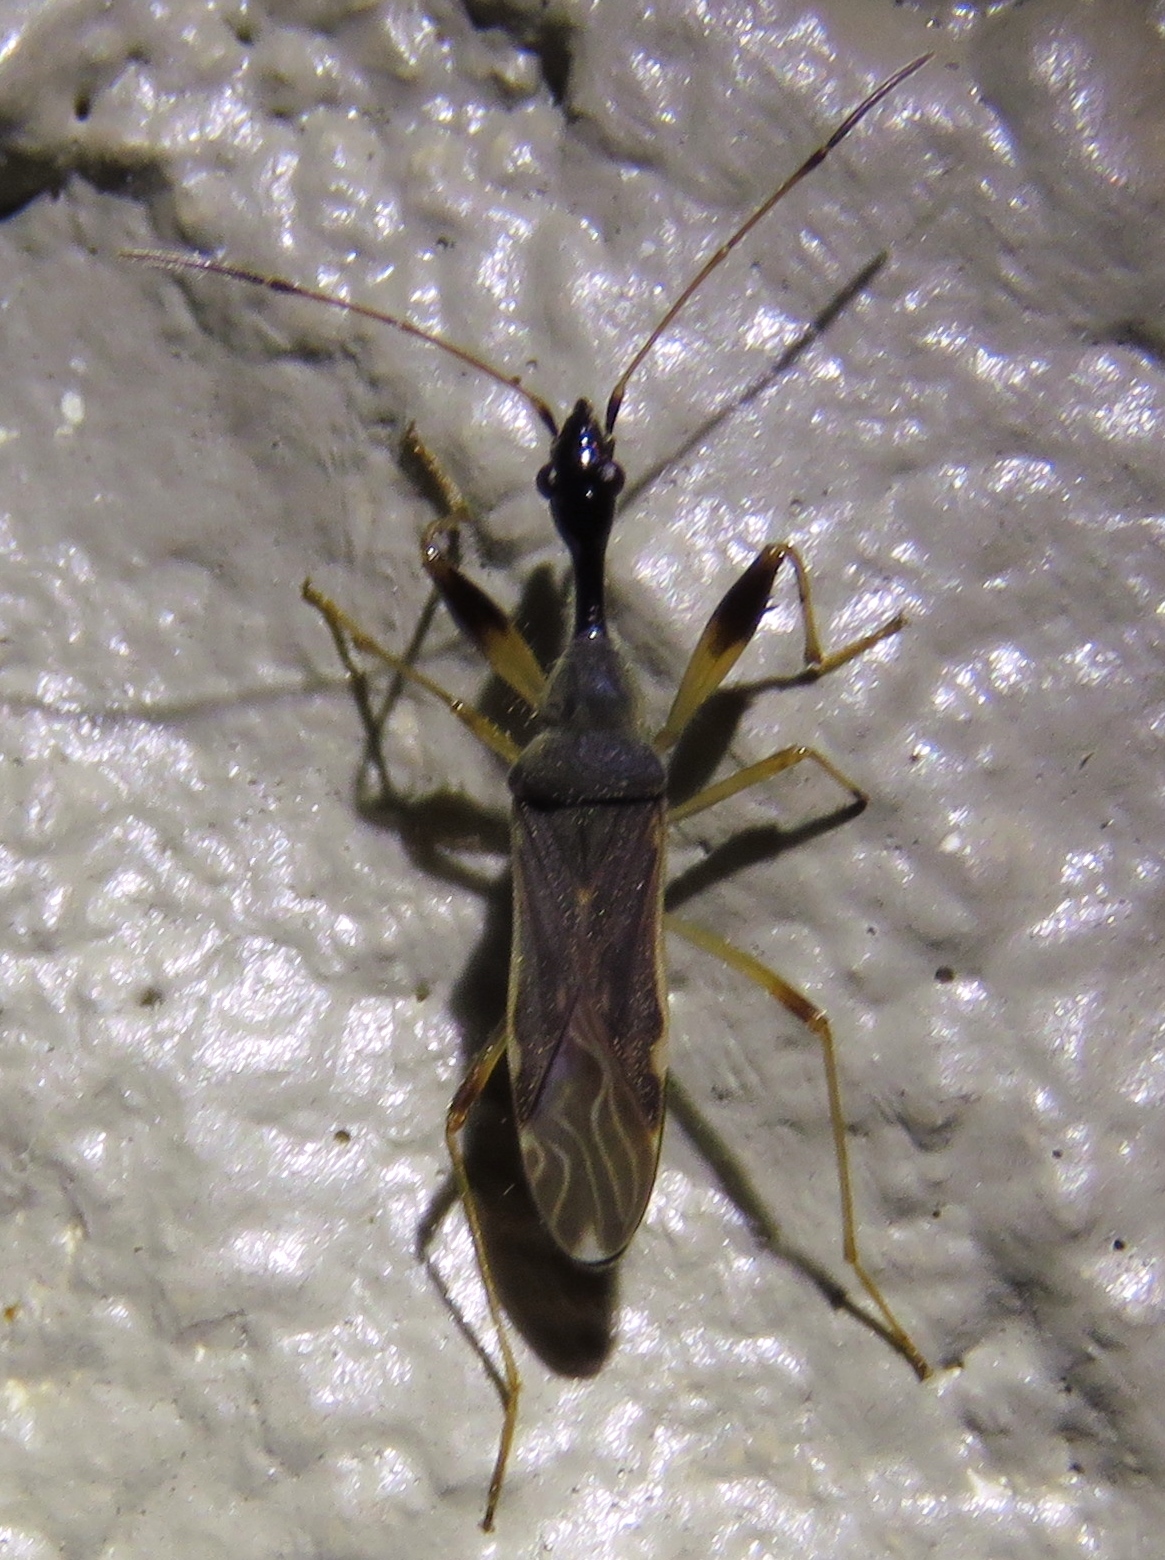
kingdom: Animalia
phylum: Arthropoda
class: Insecta
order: Hemiptera
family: Rhyparochromidae
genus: Myodocha
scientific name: Myodocha serripes
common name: Long-necked seed bug
